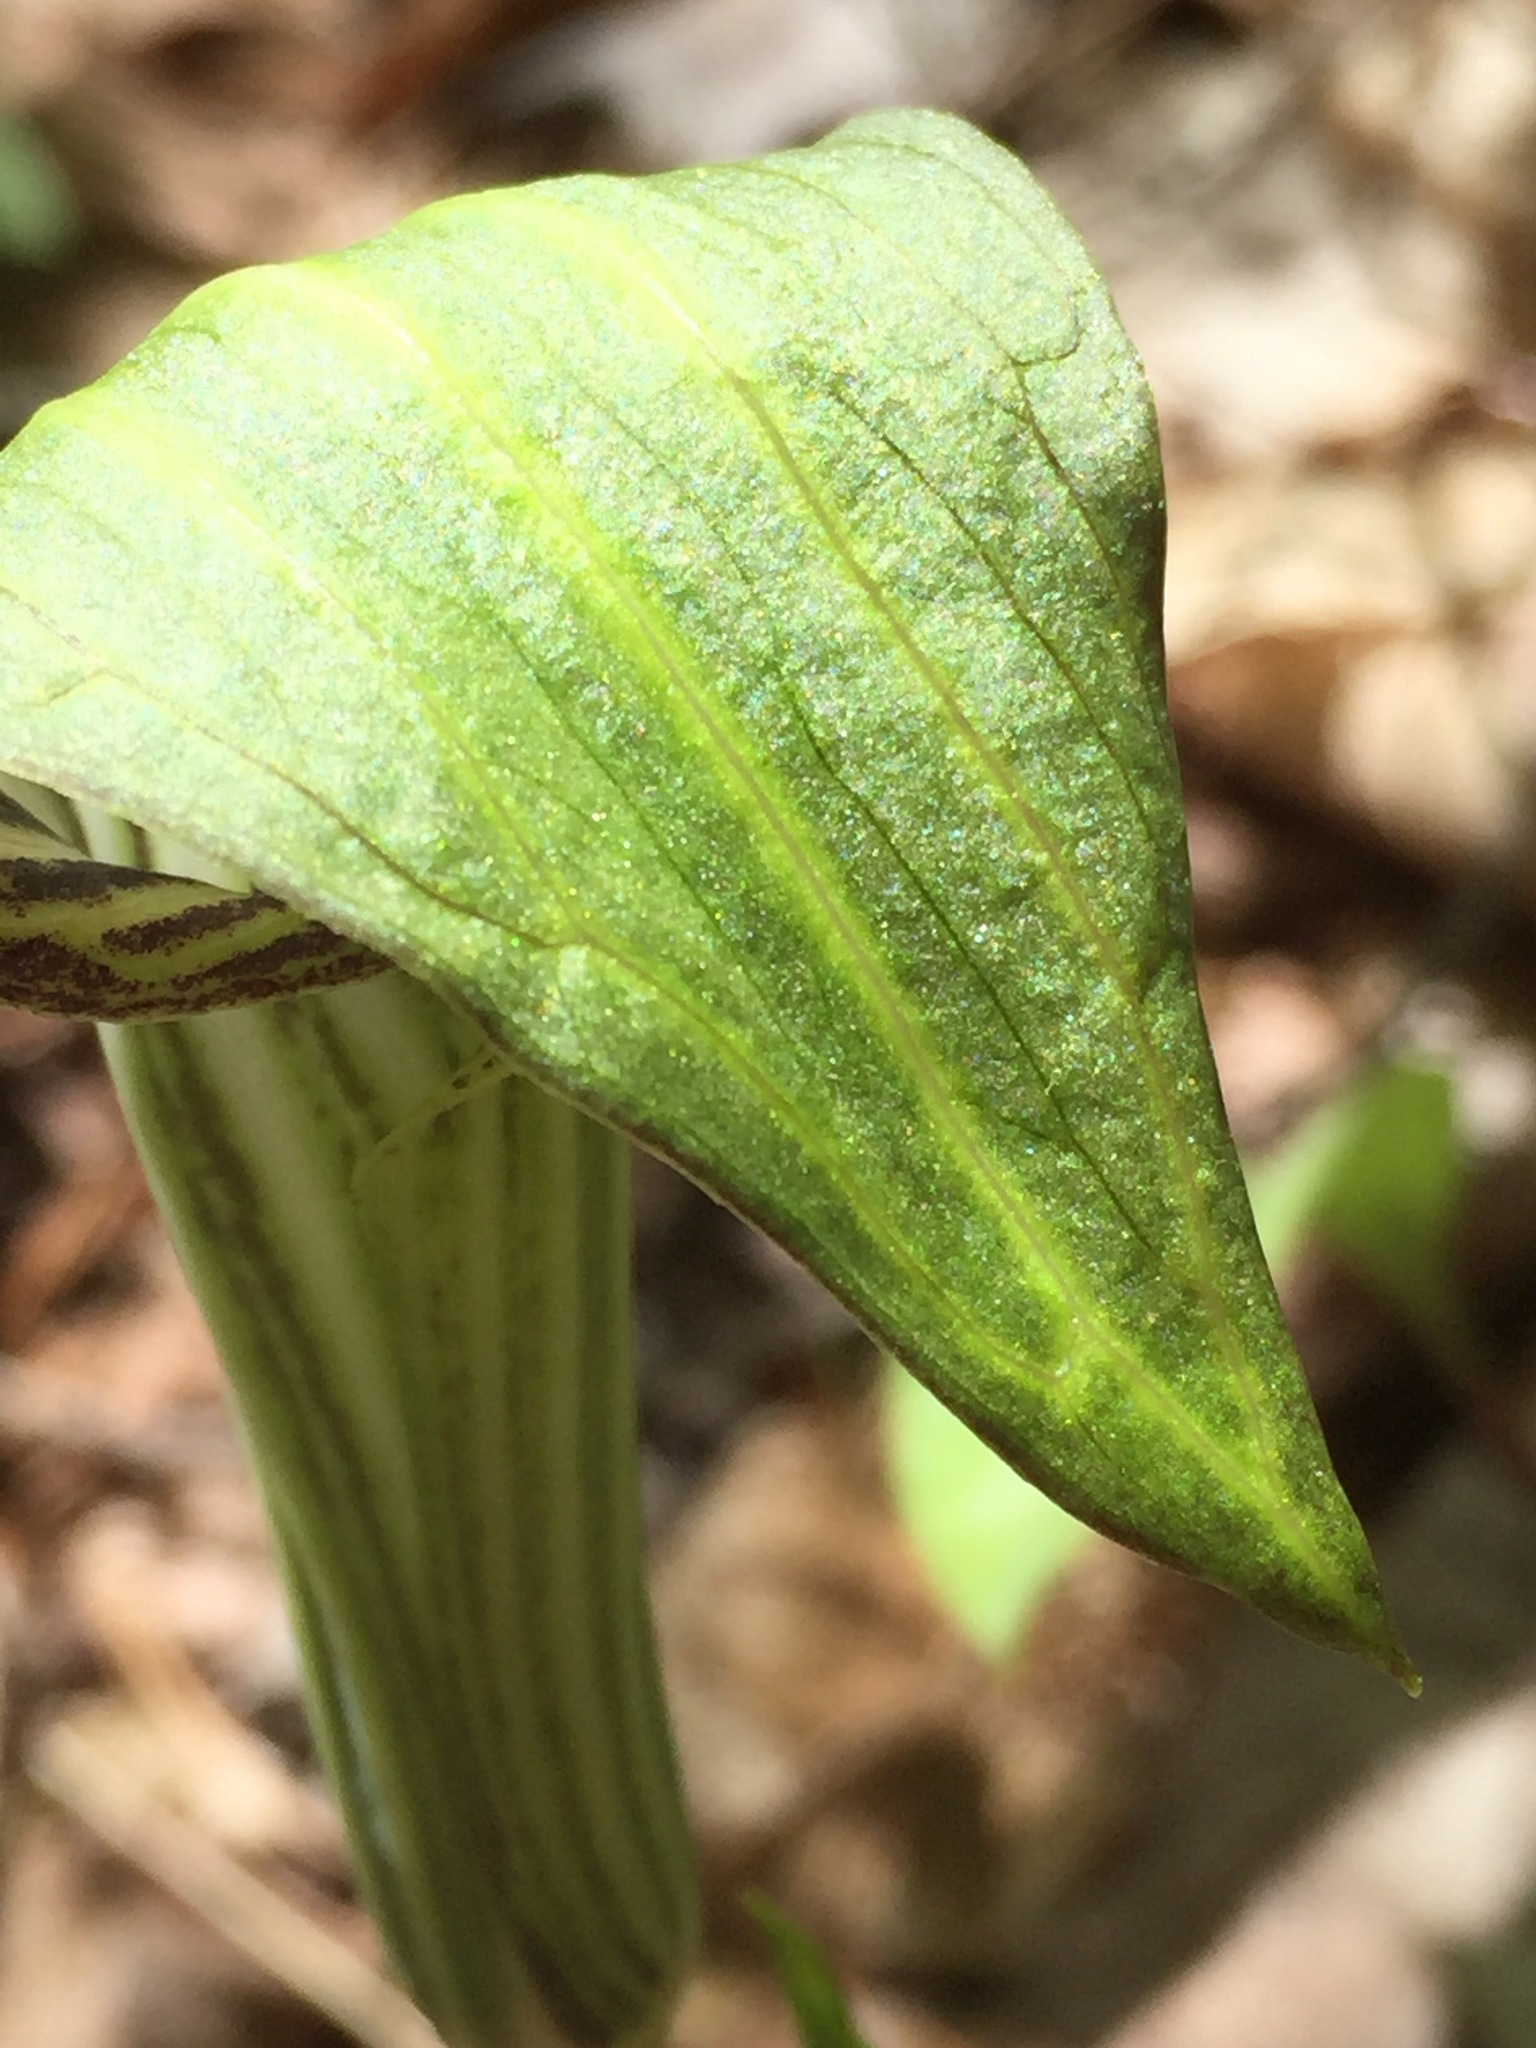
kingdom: Plantae
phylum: Tracheophyta
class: Liliopsida
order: Alismatales
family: Araceae
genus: Arisaema
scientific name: Arisaema triphyllum
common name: Jack-in-the-pulpit
